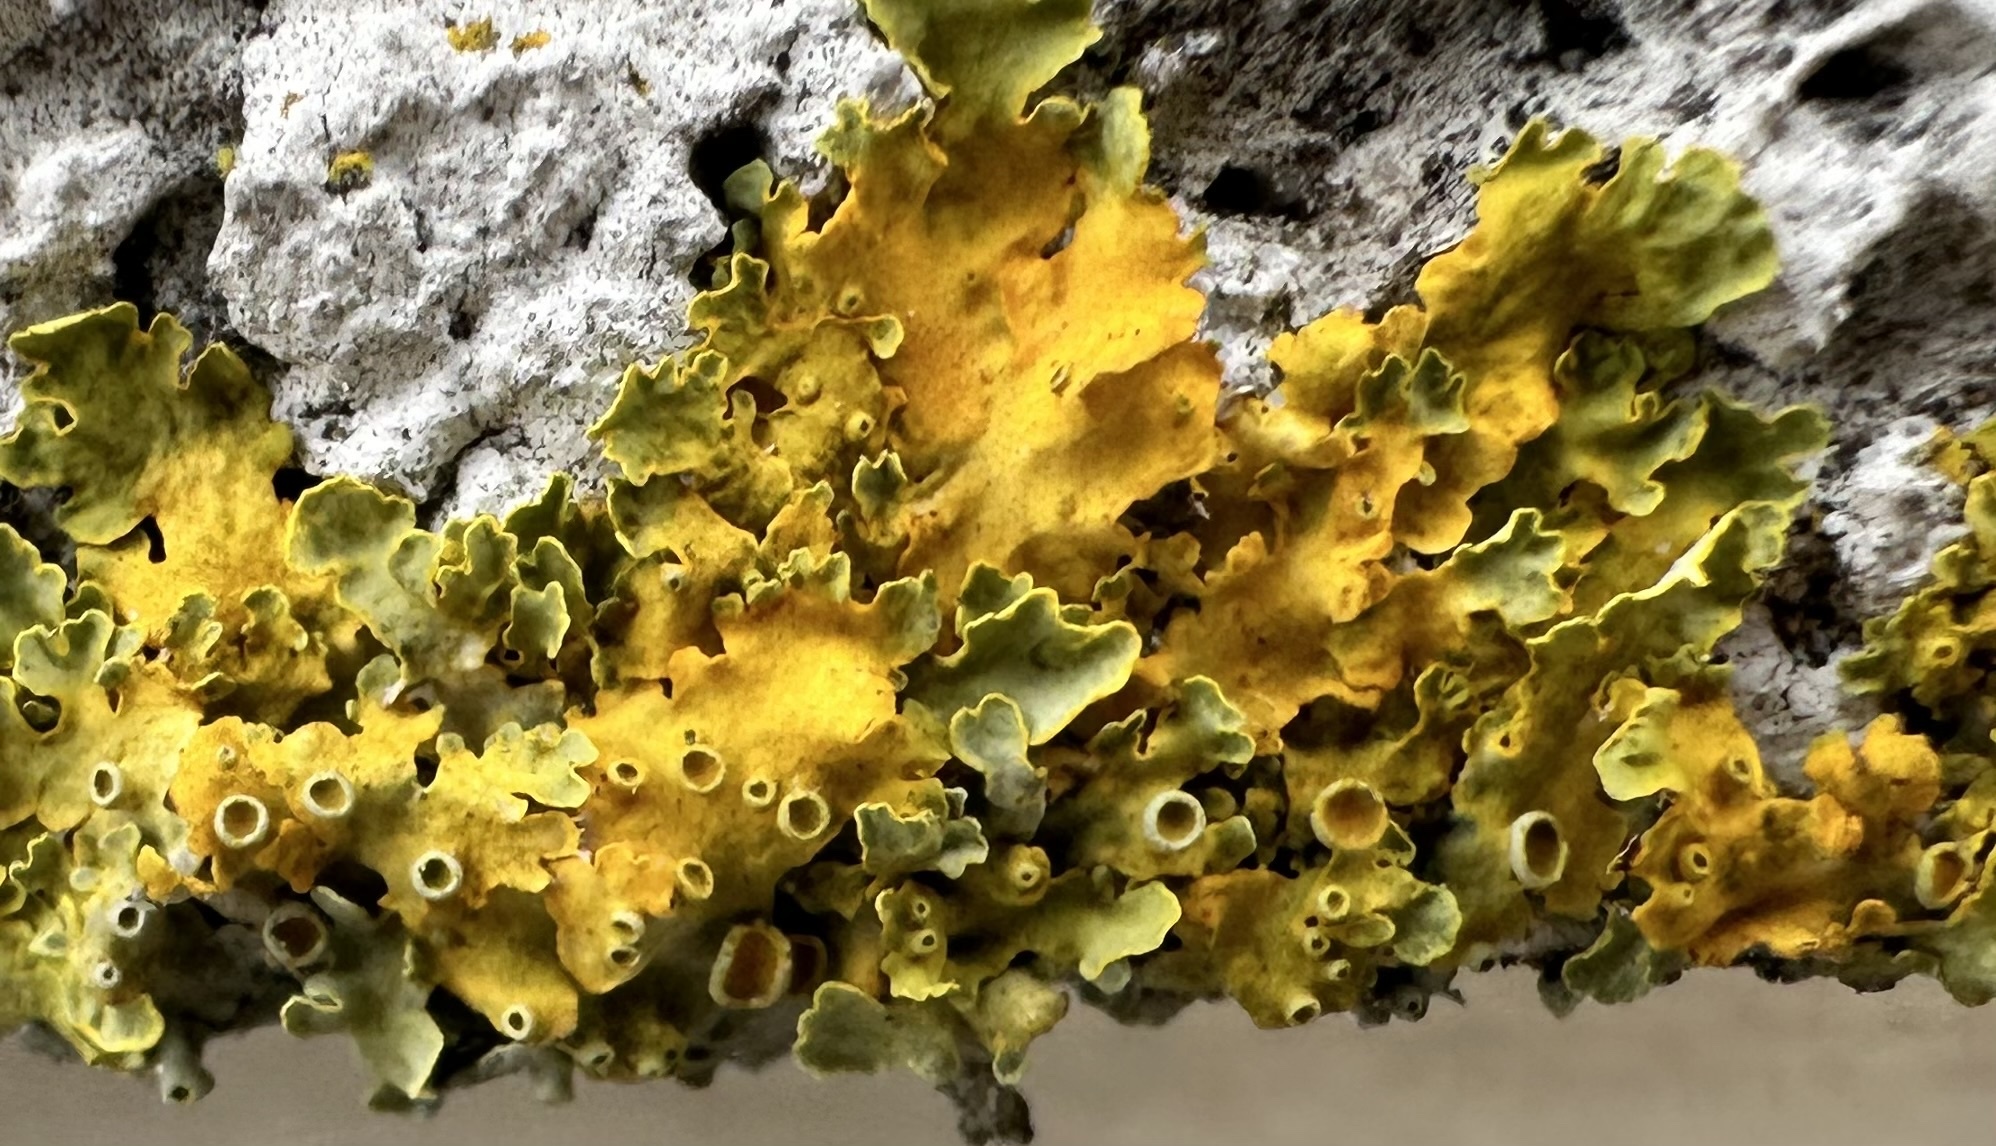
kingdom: Fungi
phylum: Ascomycota
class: Lecanoromycetes
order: Teloschistales
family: Teloschistaceae
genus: Xanthoria
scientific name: Xanthoria parietina
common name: Common orange lichen
